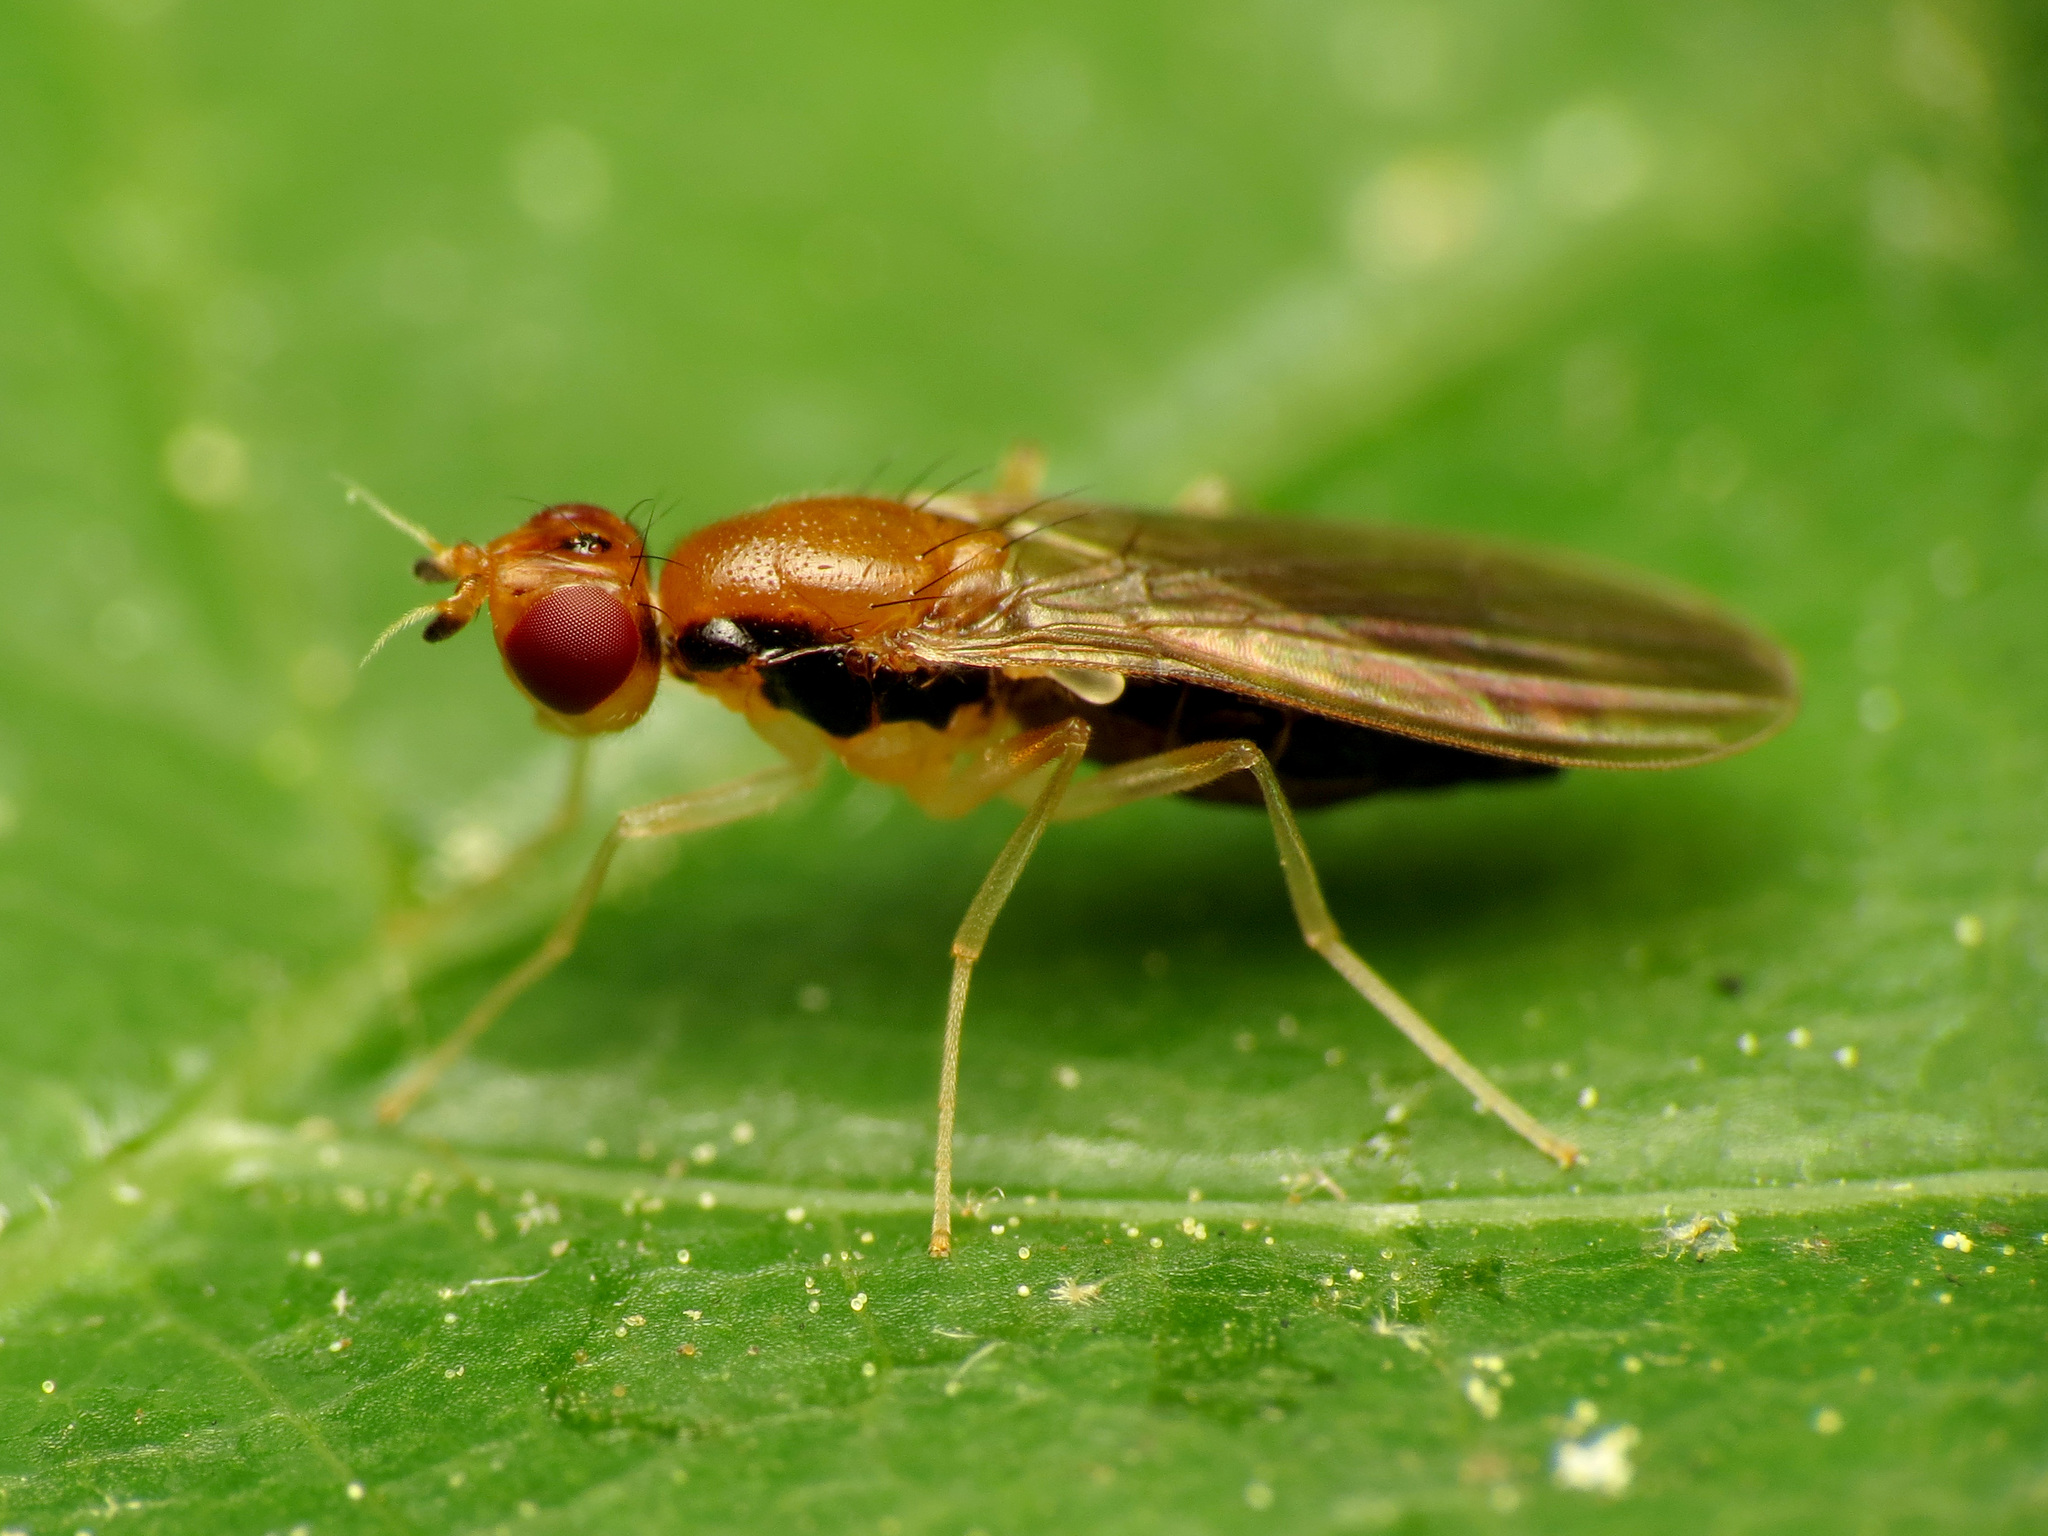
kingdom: Animalia
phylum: Arthropoda
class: Insecta
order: Diptera
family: Psilidae
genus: Psila
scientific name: Psila lateralis
